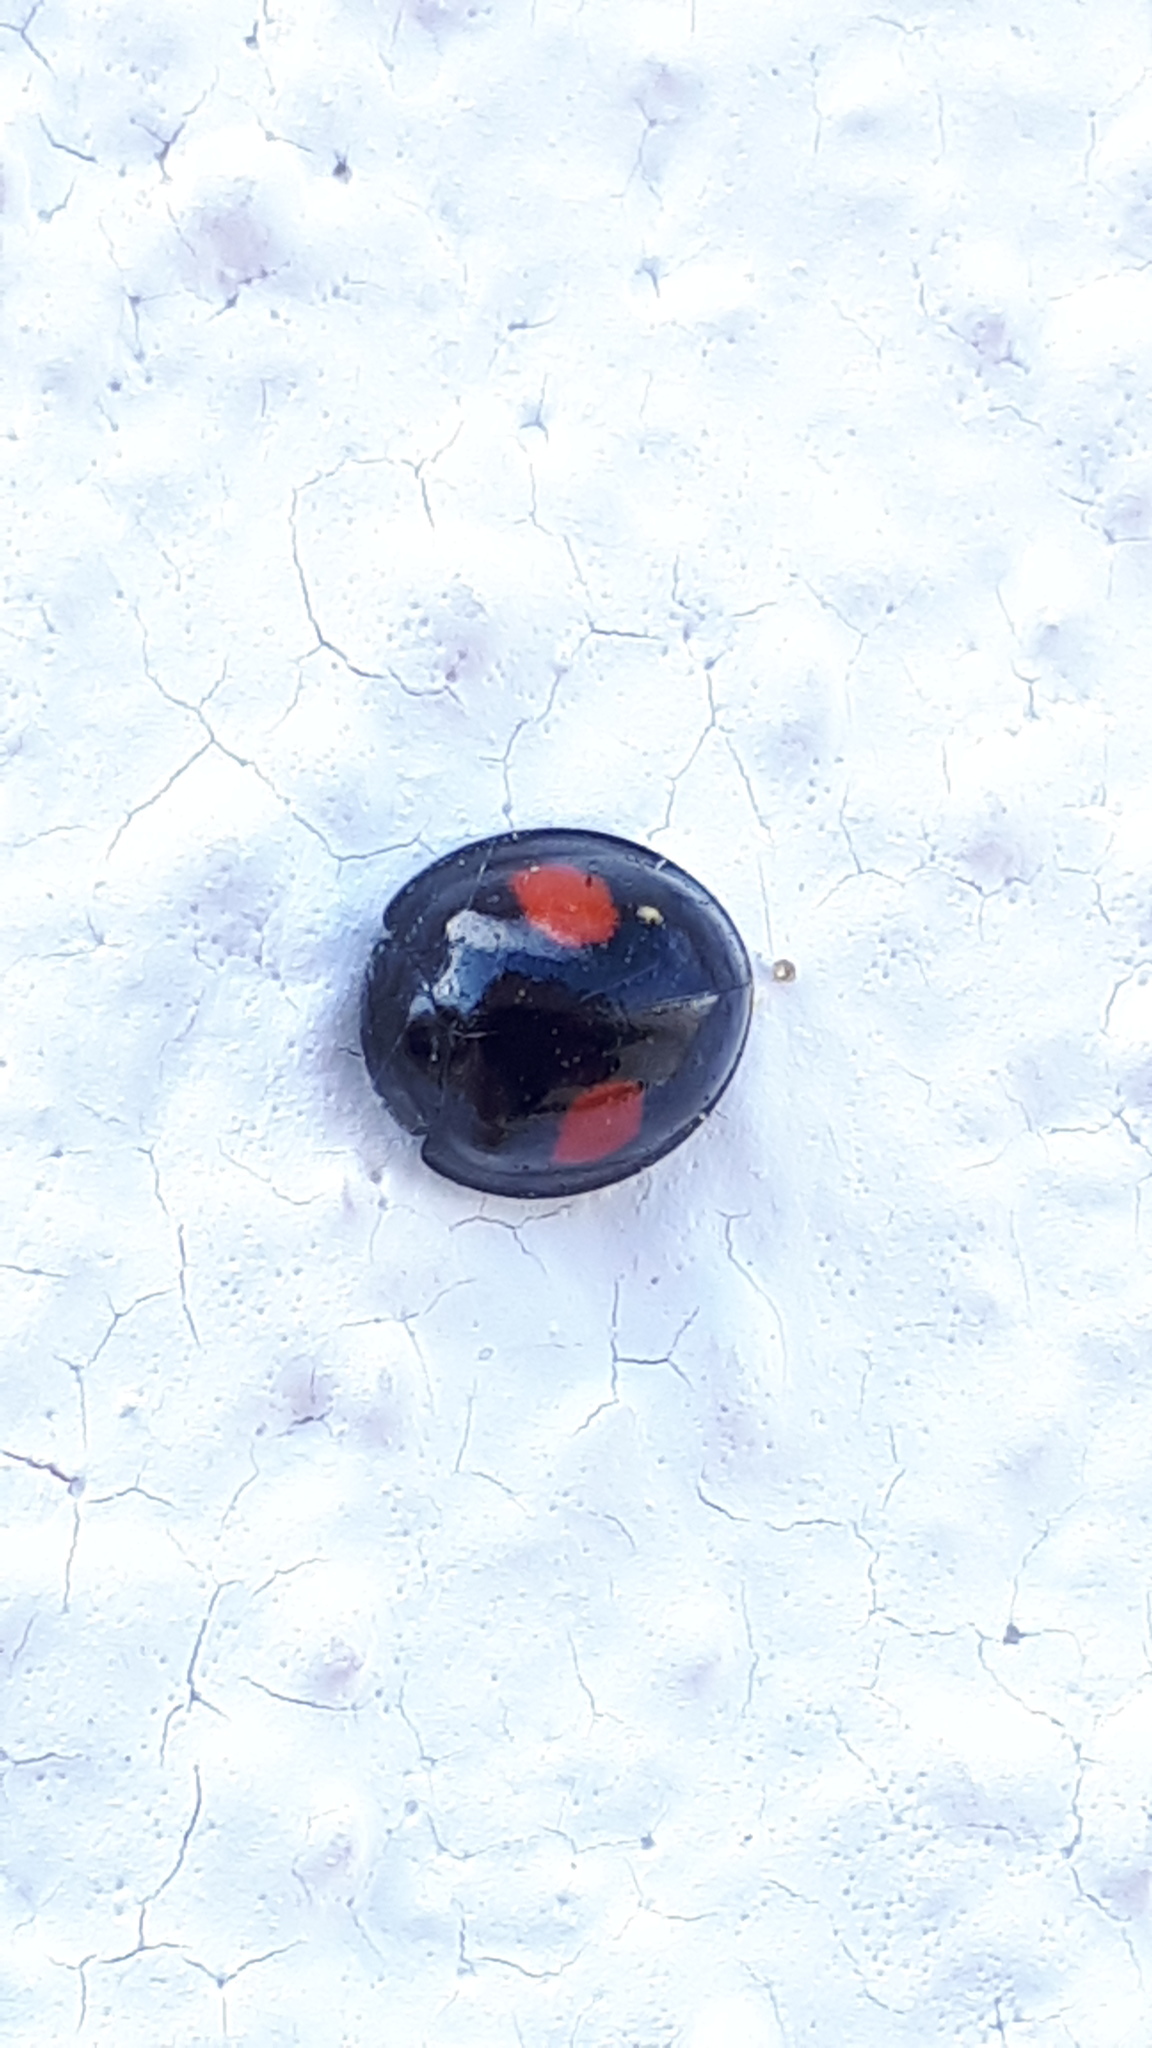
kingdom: Animalia
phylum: Arthropoda
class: Insecta
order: Coleoptera
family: Coccinellidae
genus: Chilocorus
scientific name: Chilocorus renipustulatus
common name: Kidney-spot ladybird
